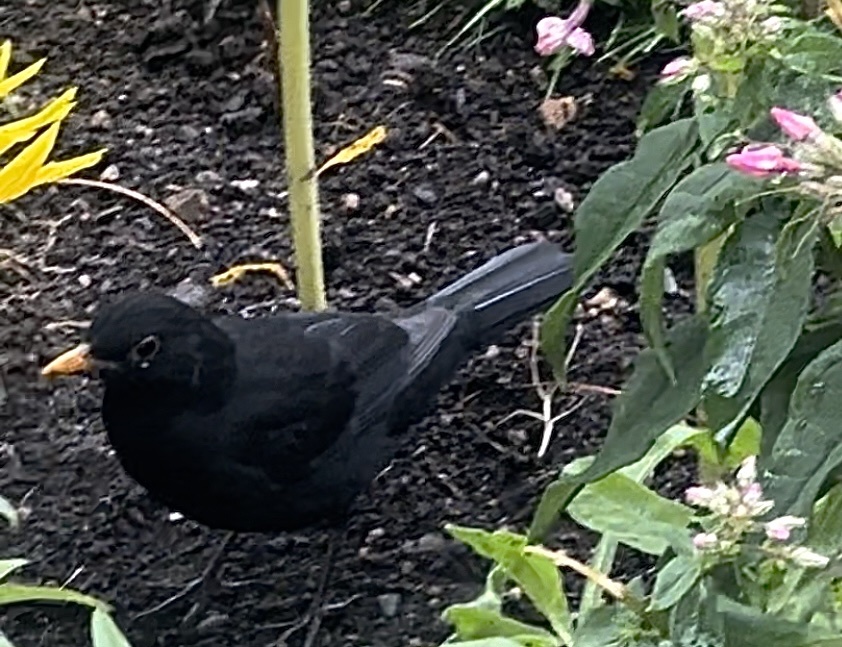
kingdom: Animalia
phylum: Chordata
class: Aves
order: Passeriformes
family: Turdidae
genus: Turdus
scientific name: Turdus merula
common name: Common blackbird
